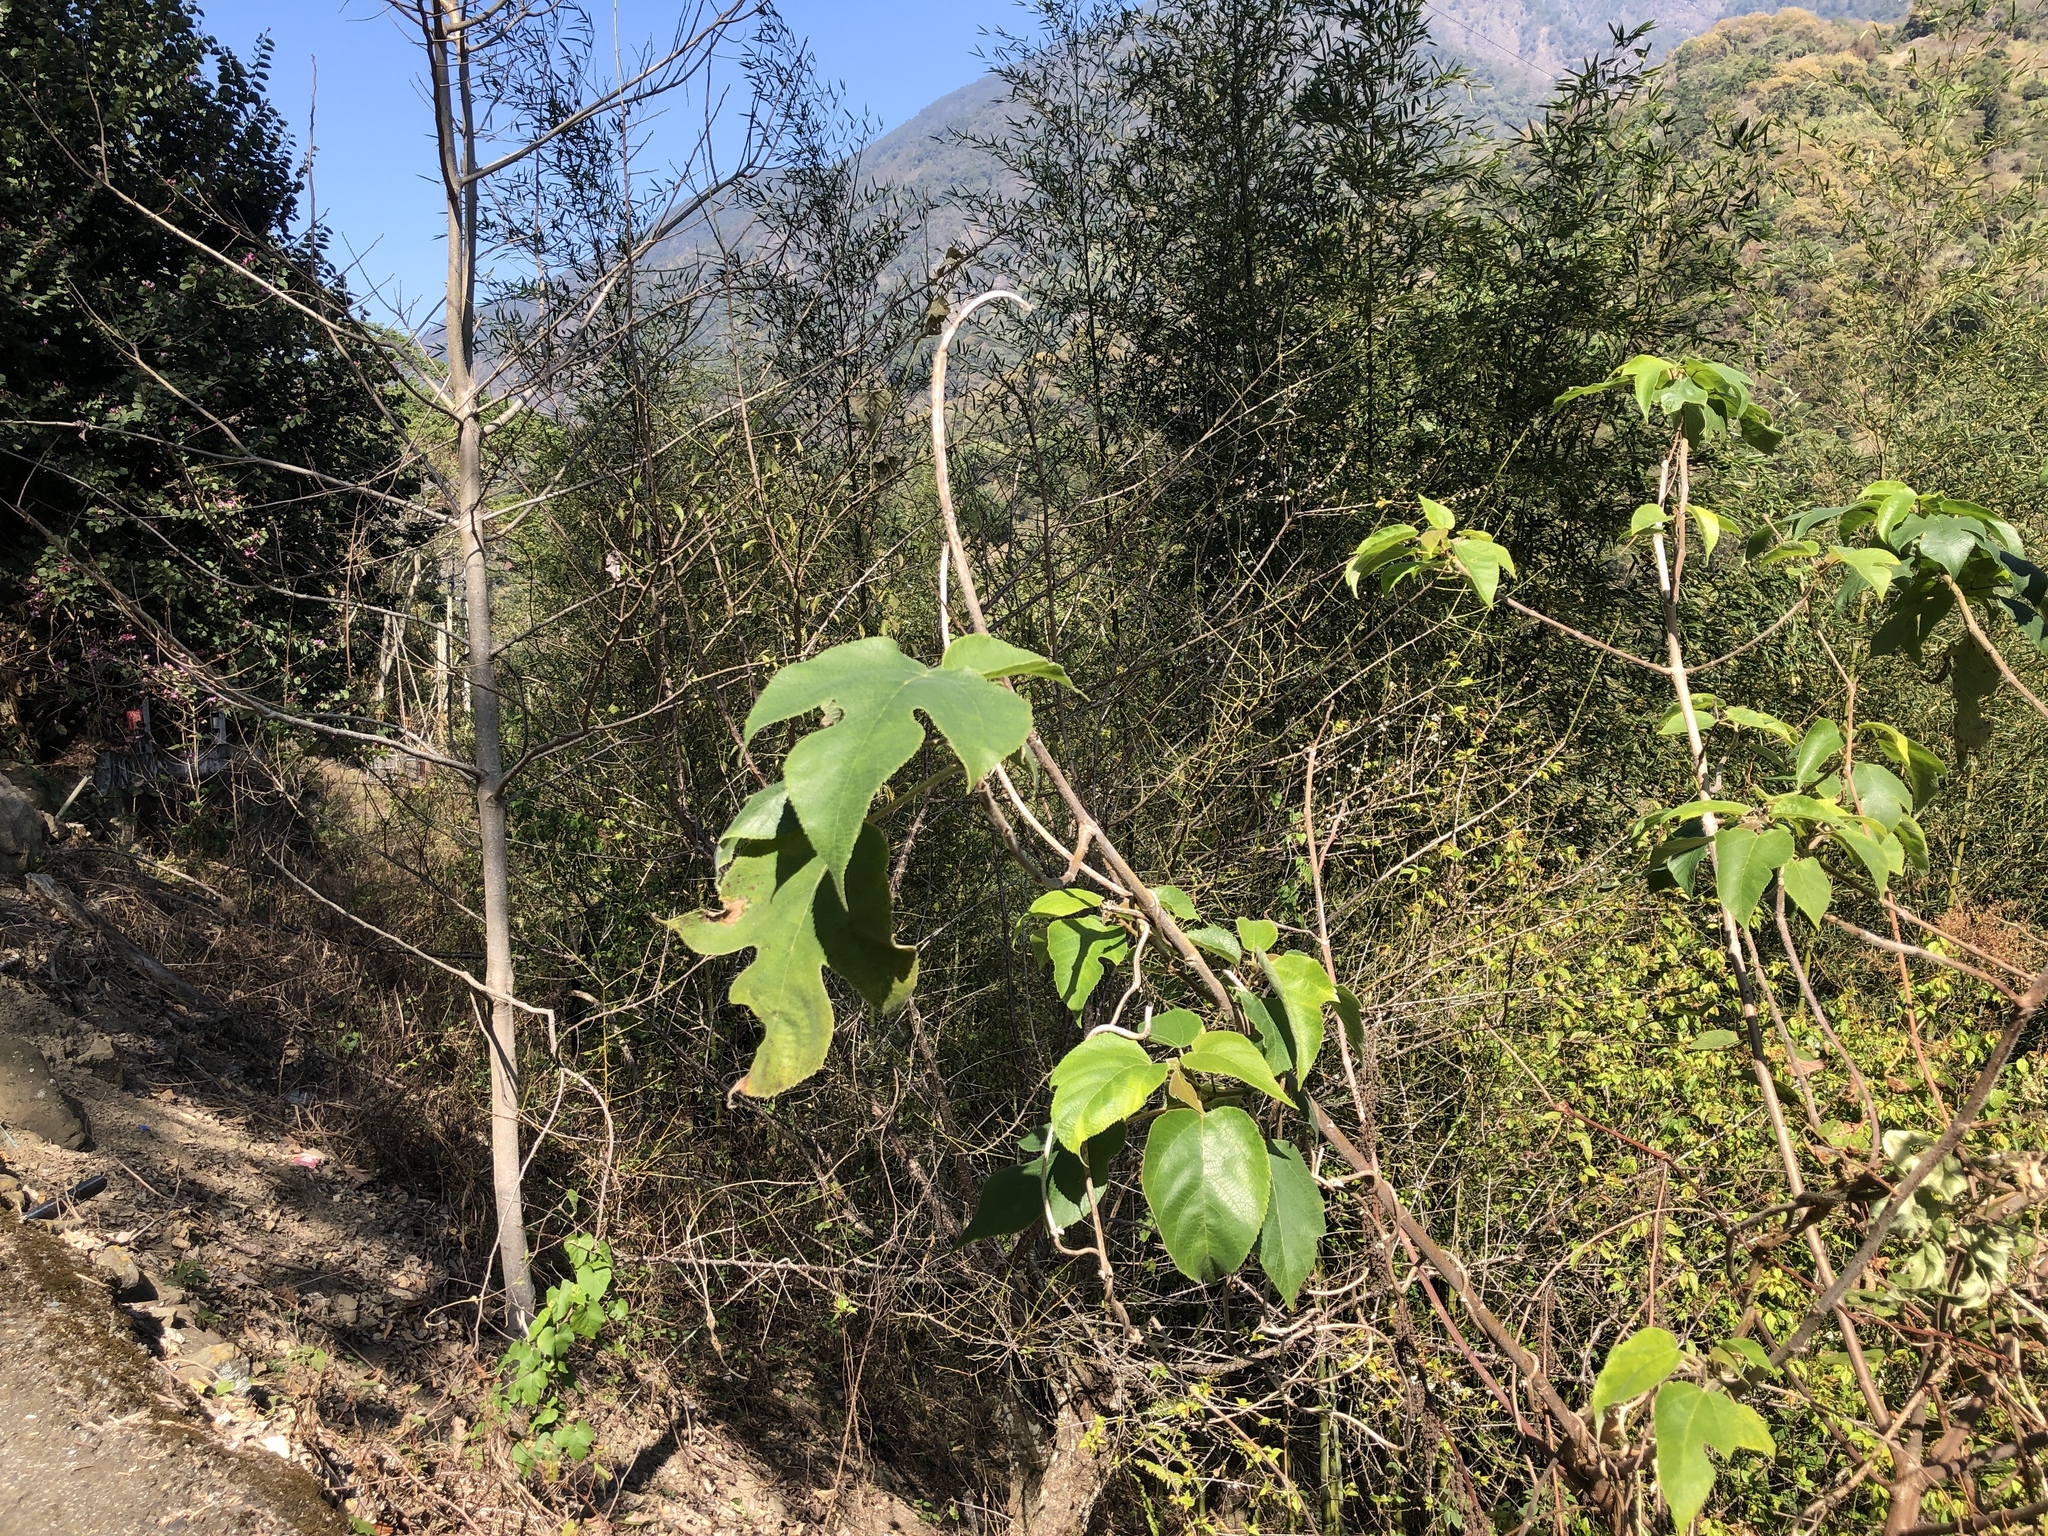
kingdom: Plantae
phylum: Tracheophyta
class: Magnoliopsida
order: Rosales
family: Moraceae
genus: Broussonetia
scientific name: Broussonetia papyrifera
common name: Paper mulberry
